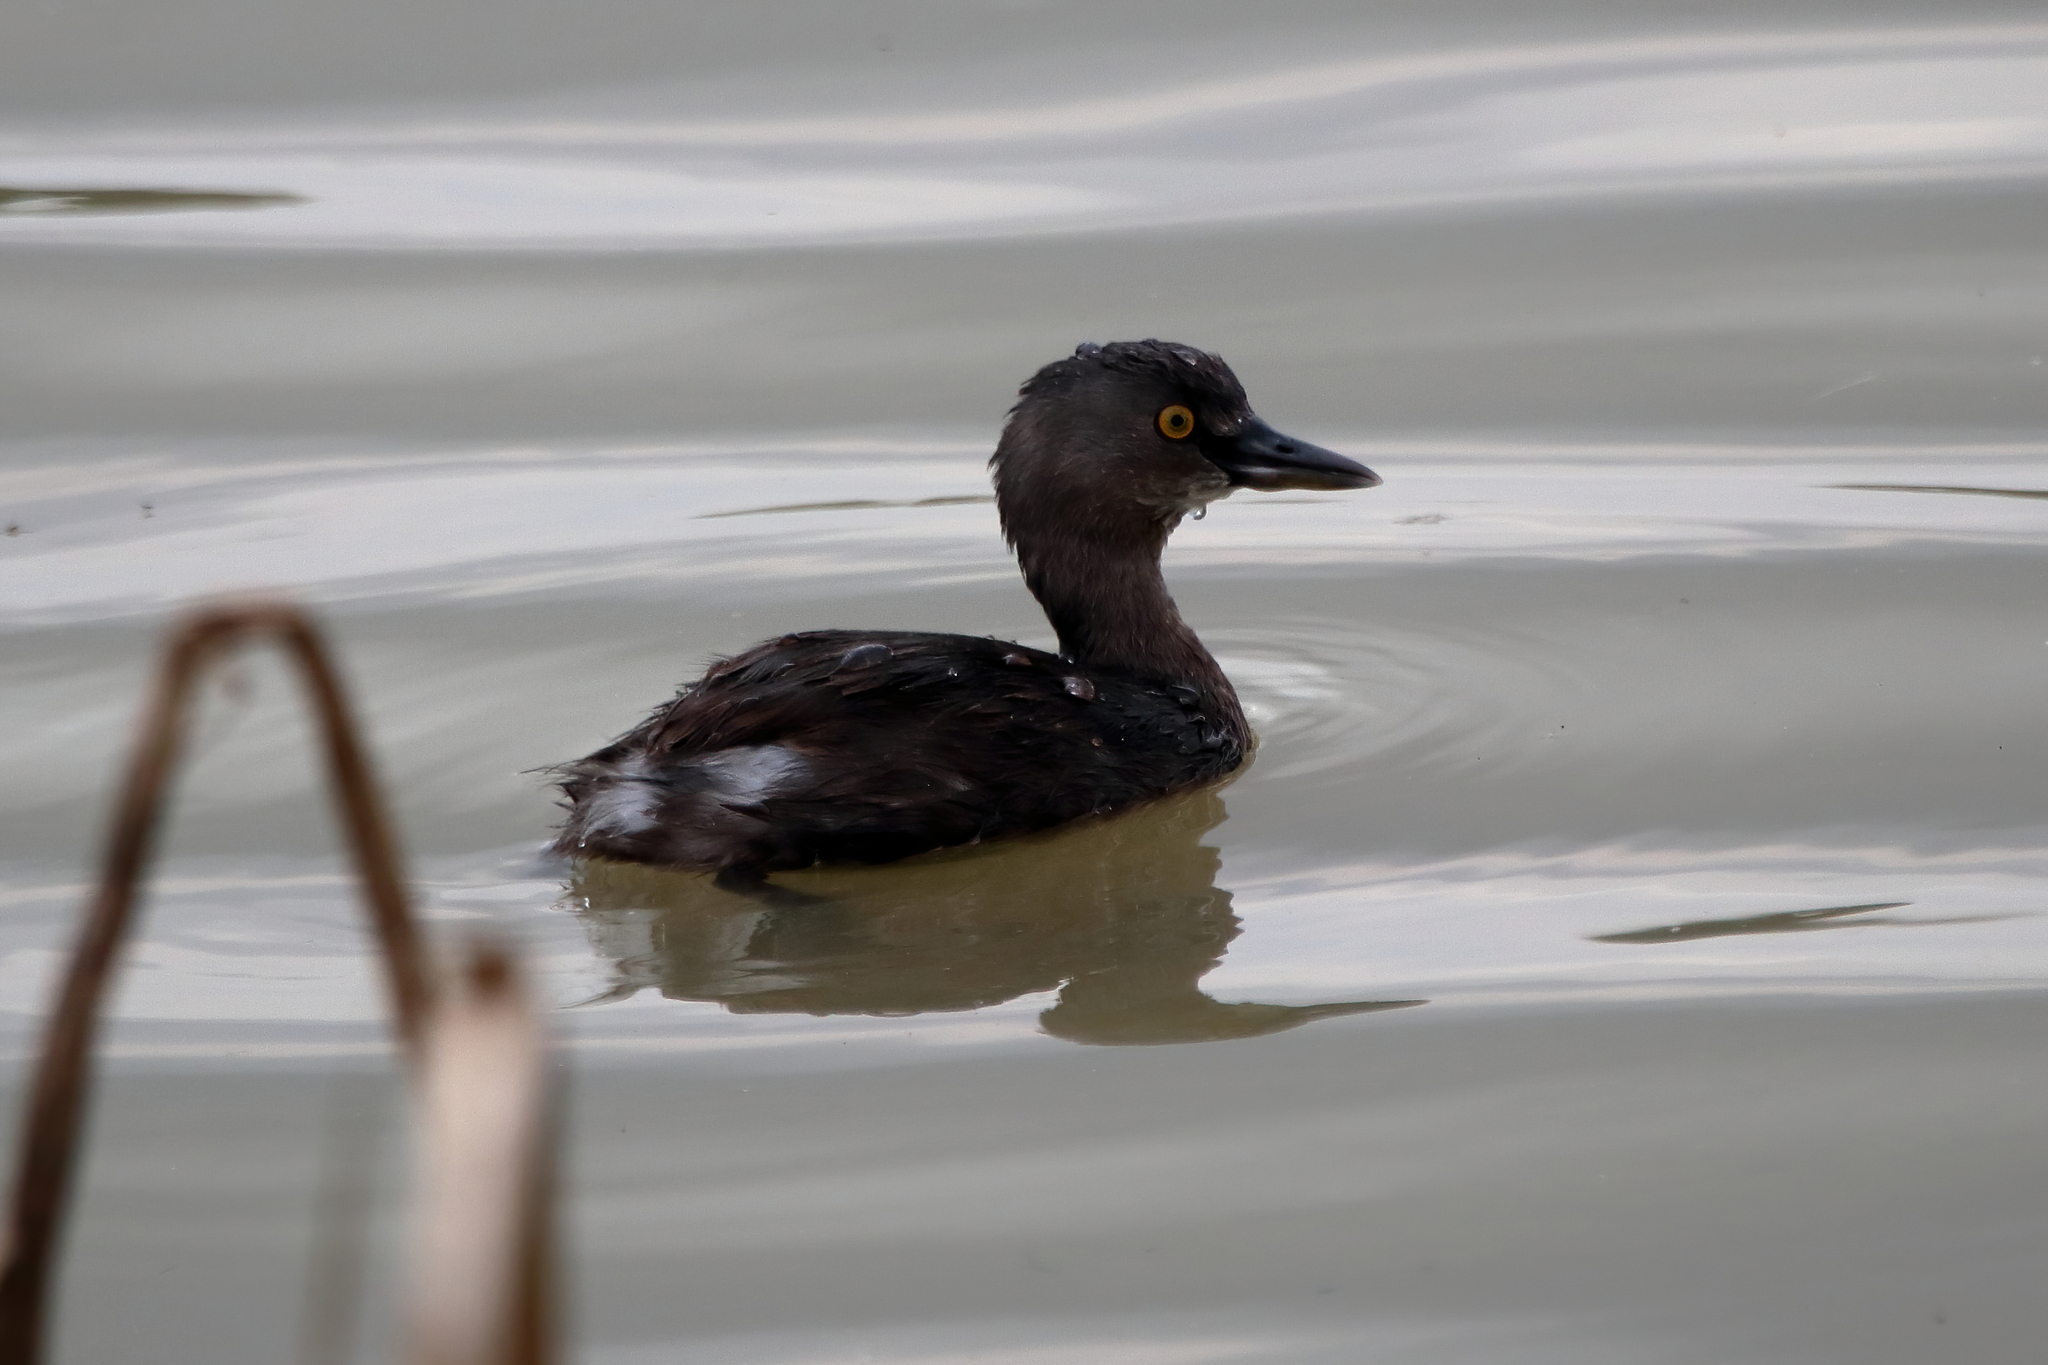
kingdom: Animalia
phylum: Chordata
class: Aves
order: Podicipediformes
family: Podicipedidae
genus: Tachybaptus
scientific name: Tachybaptus dominicus
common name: Least grebe
